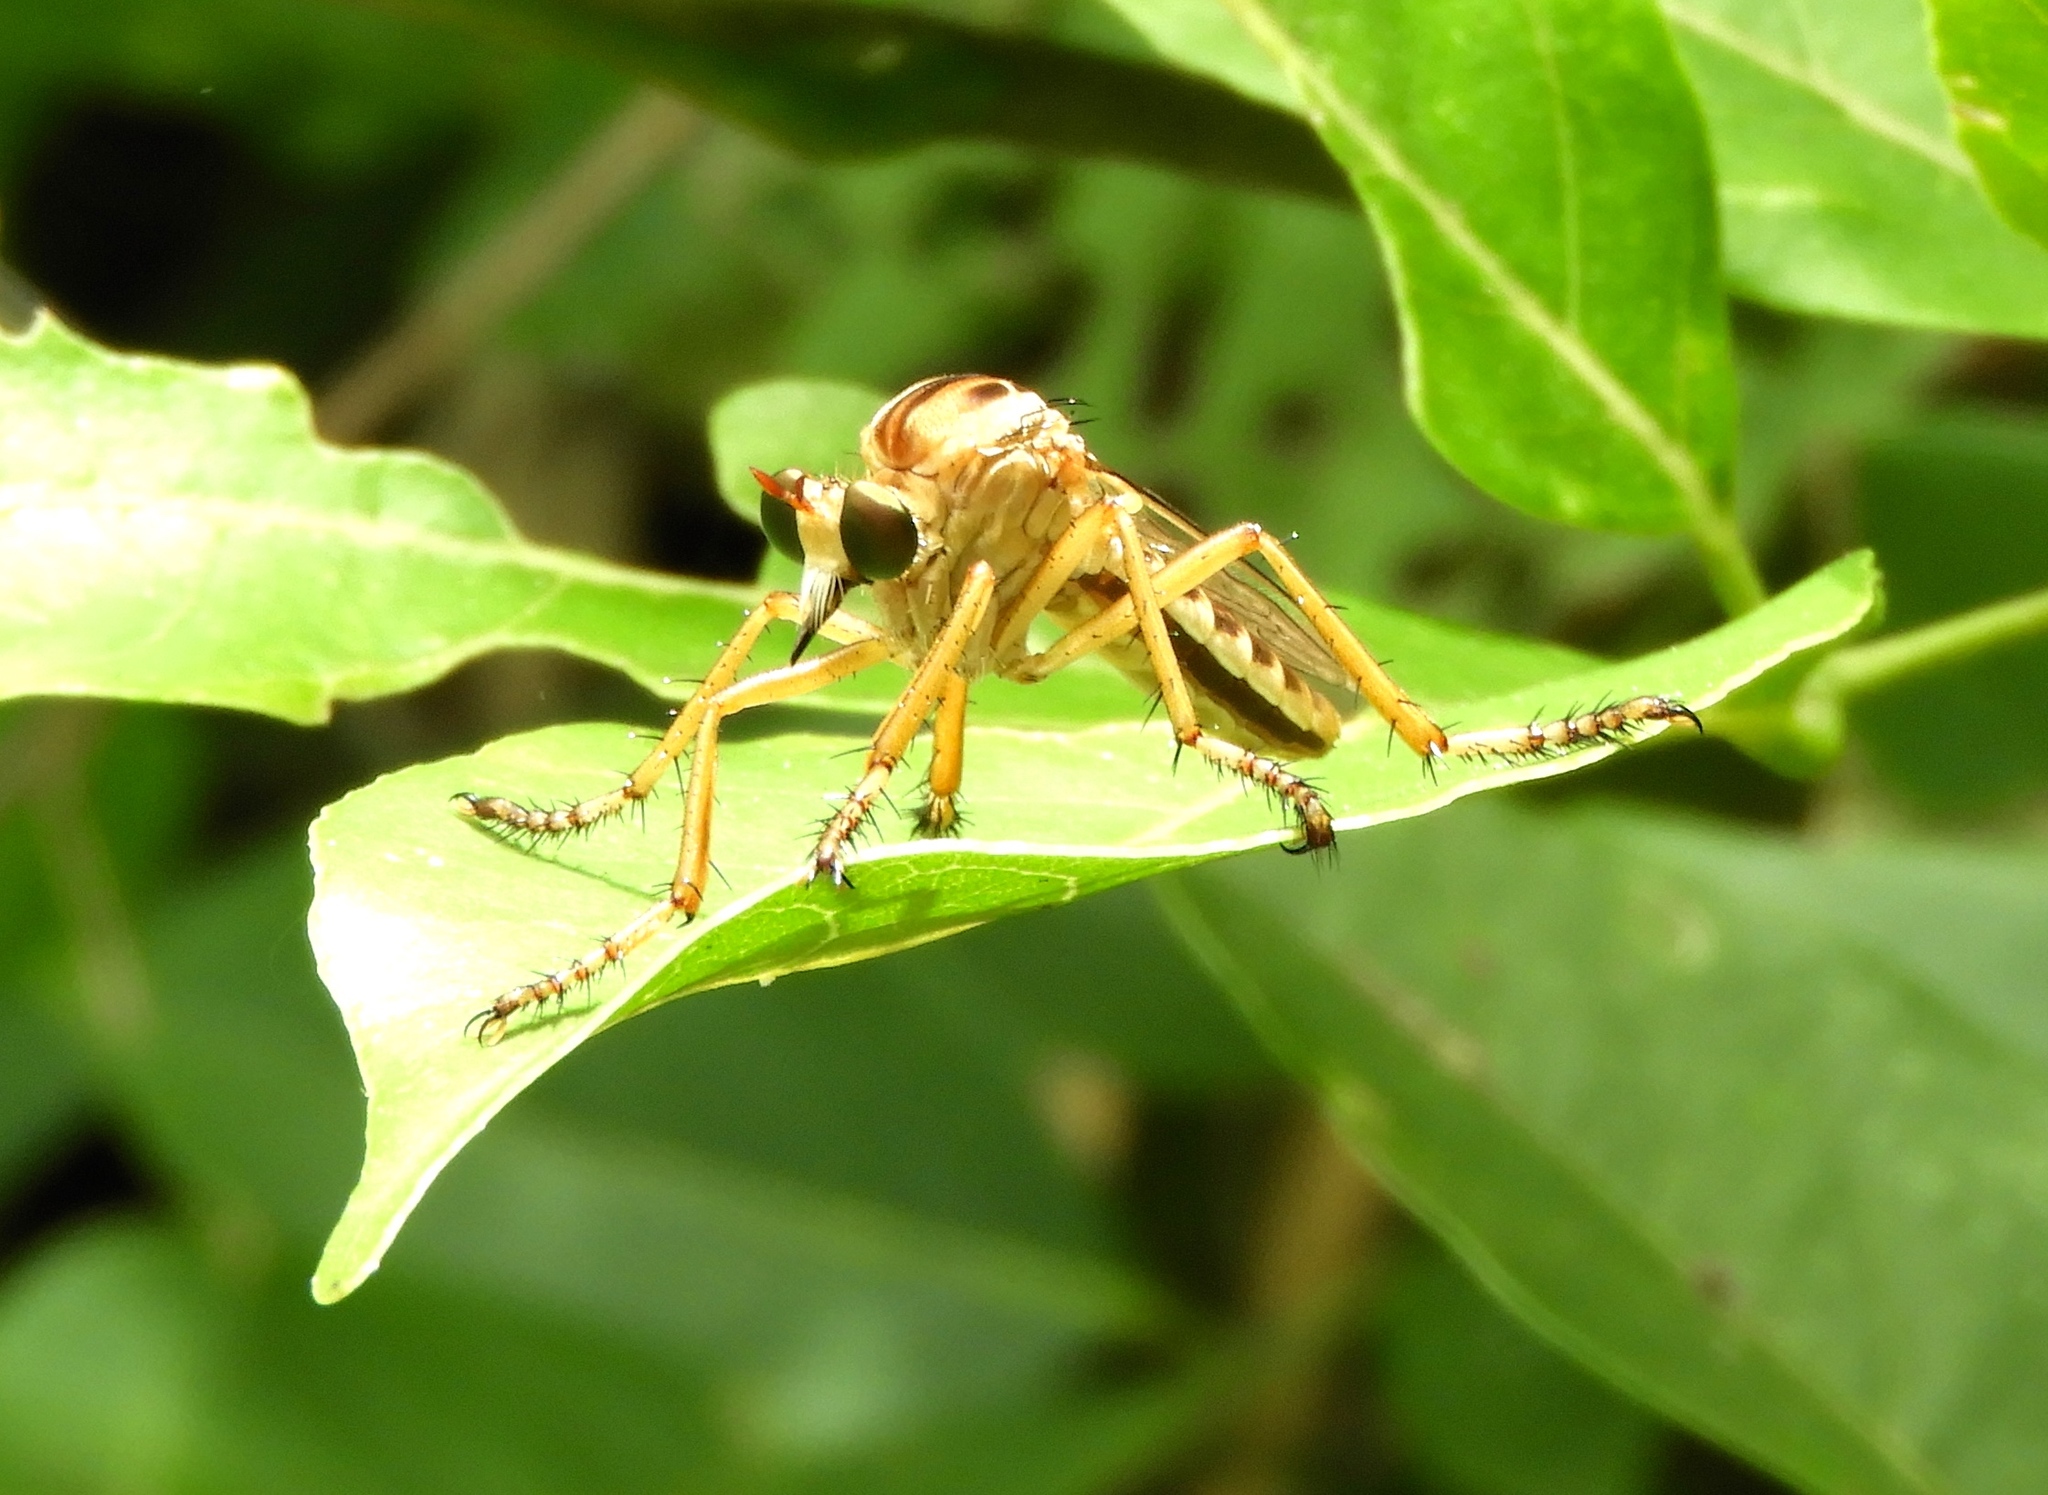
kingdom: Animalia
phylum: Arthropoda
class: Insecta
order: Diptera
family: Asilidae
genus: Diogmites
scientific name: Diogmites
